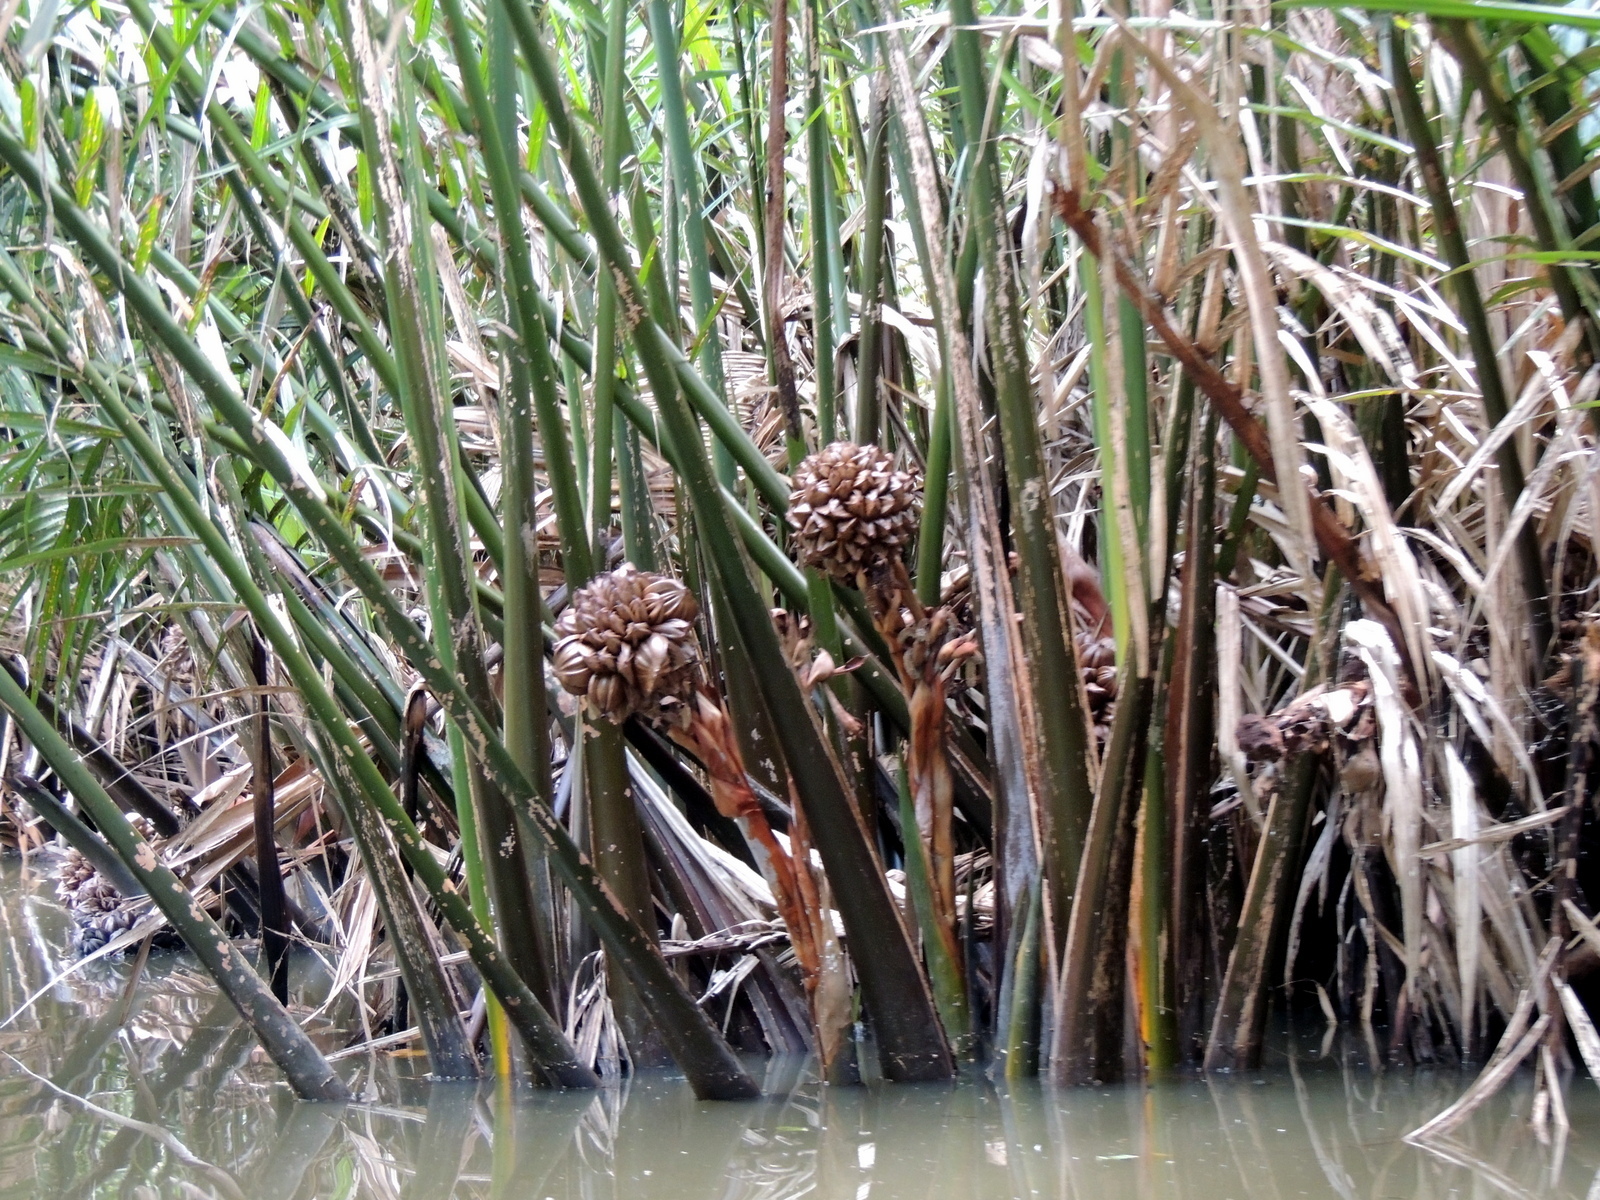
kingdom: Plantae
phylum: Tracheophyta
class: Liliopsida
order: Arecales
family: Arecaceae
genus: Nypa
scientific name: Nypa fruticans
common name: Mangrove palm
